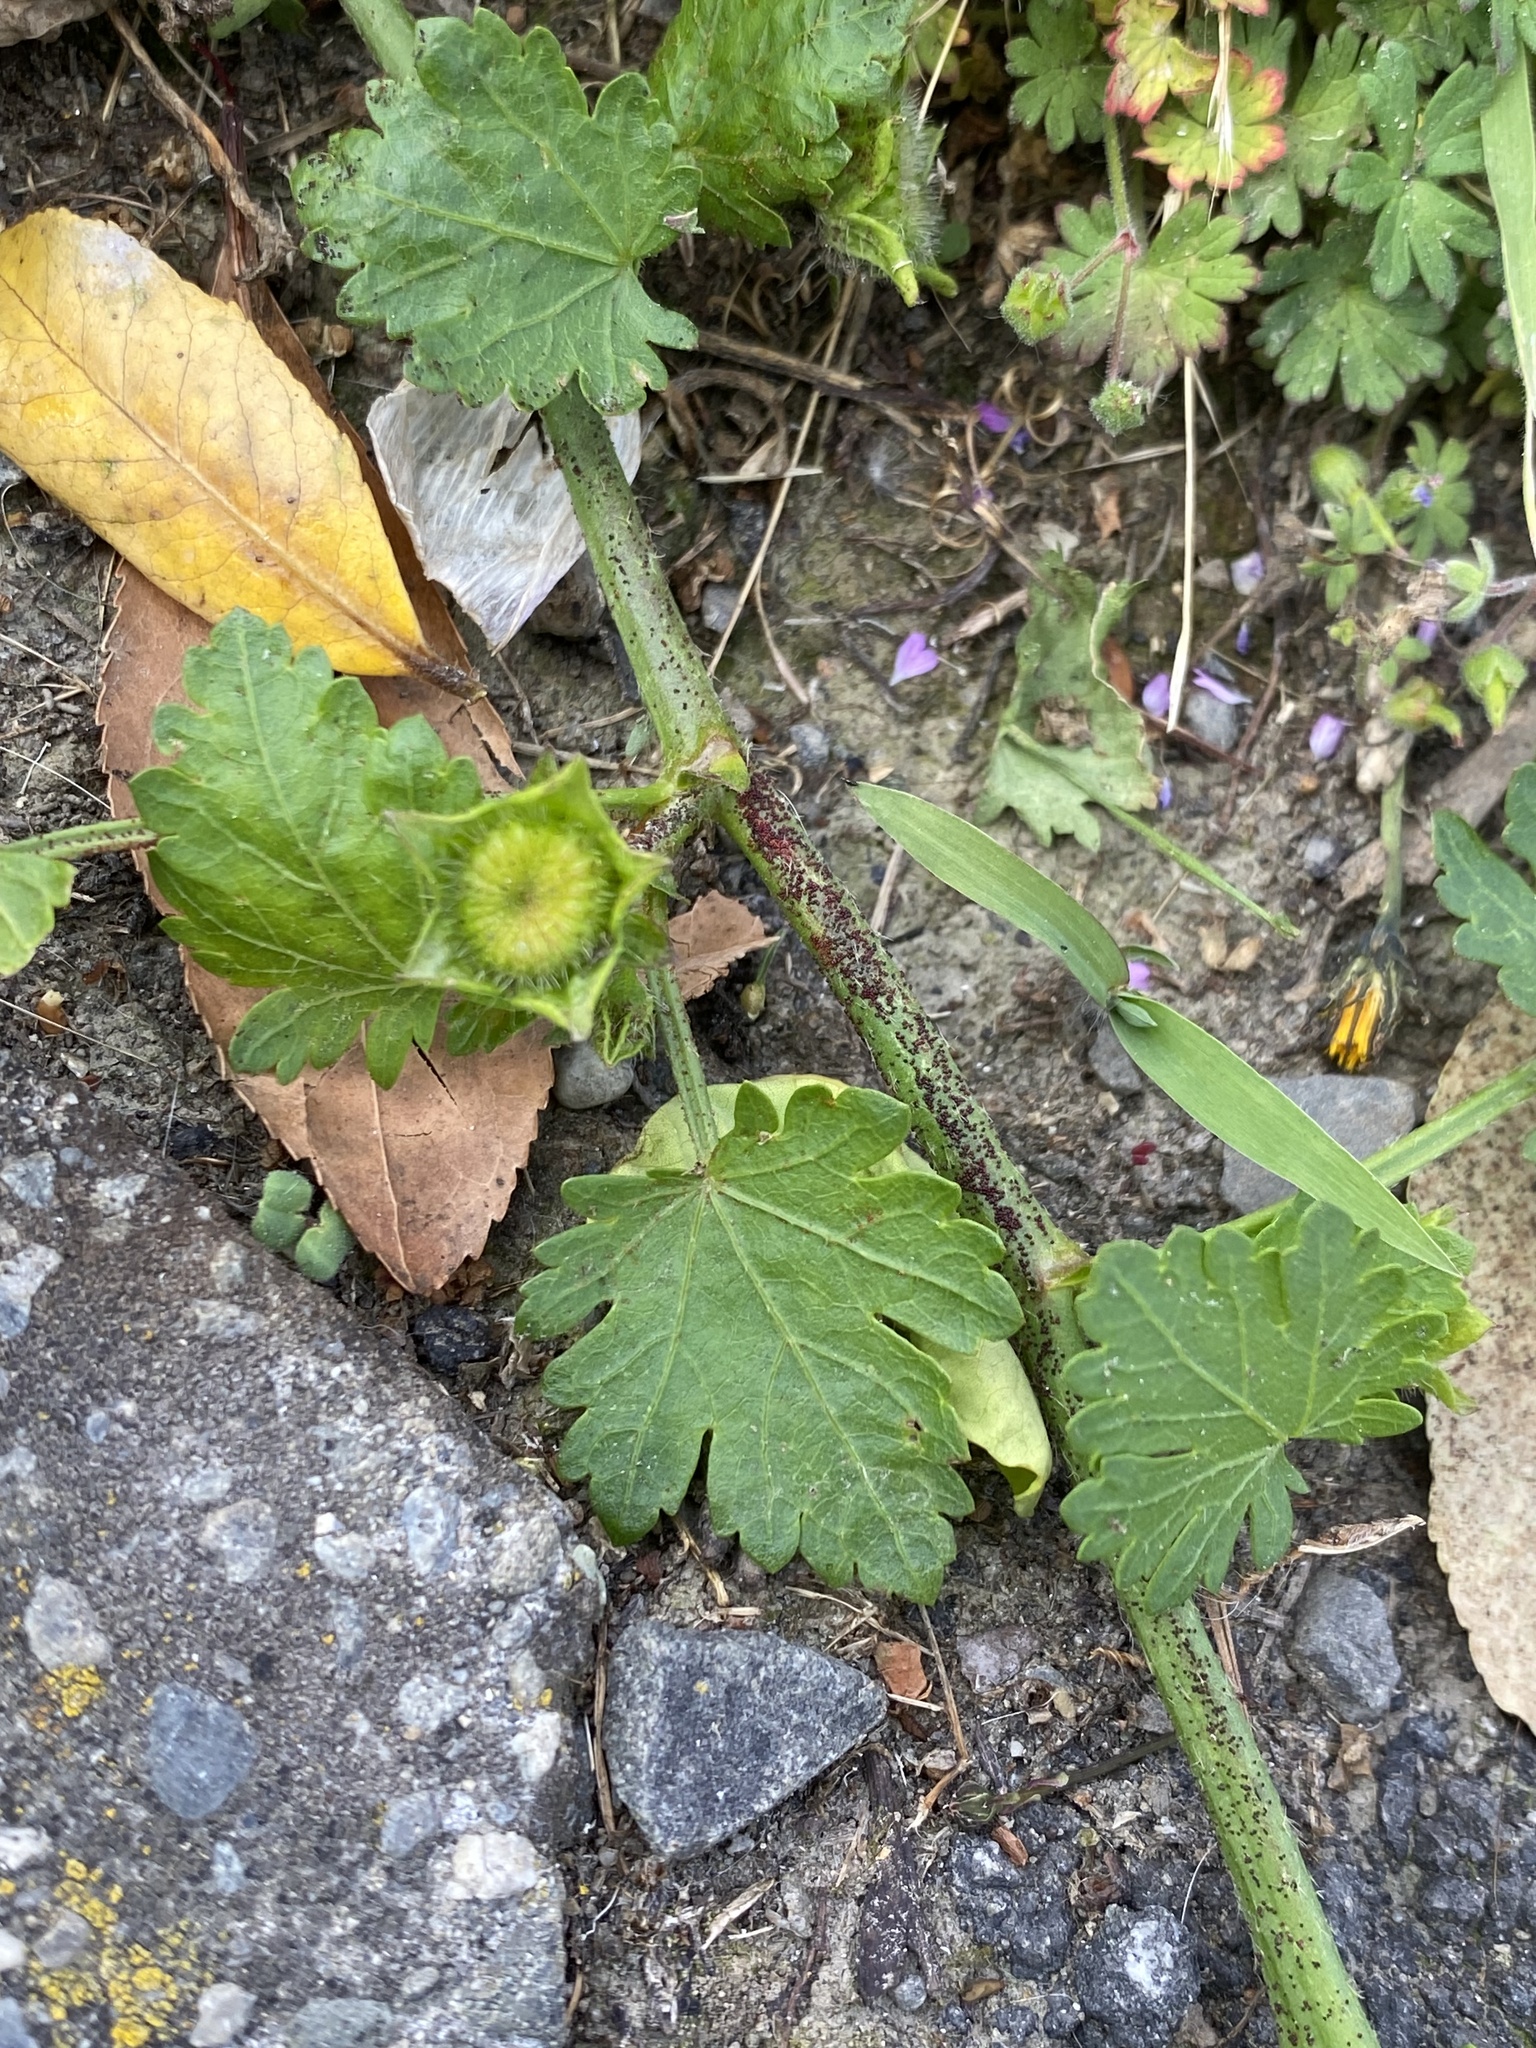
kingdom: Plantae
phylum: Tracheophyta
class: Magnoliopsida
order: Malvales
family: Malvaceae
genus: Modiola
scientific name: Modiola caroliniana
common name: Carolina bristlemallow
